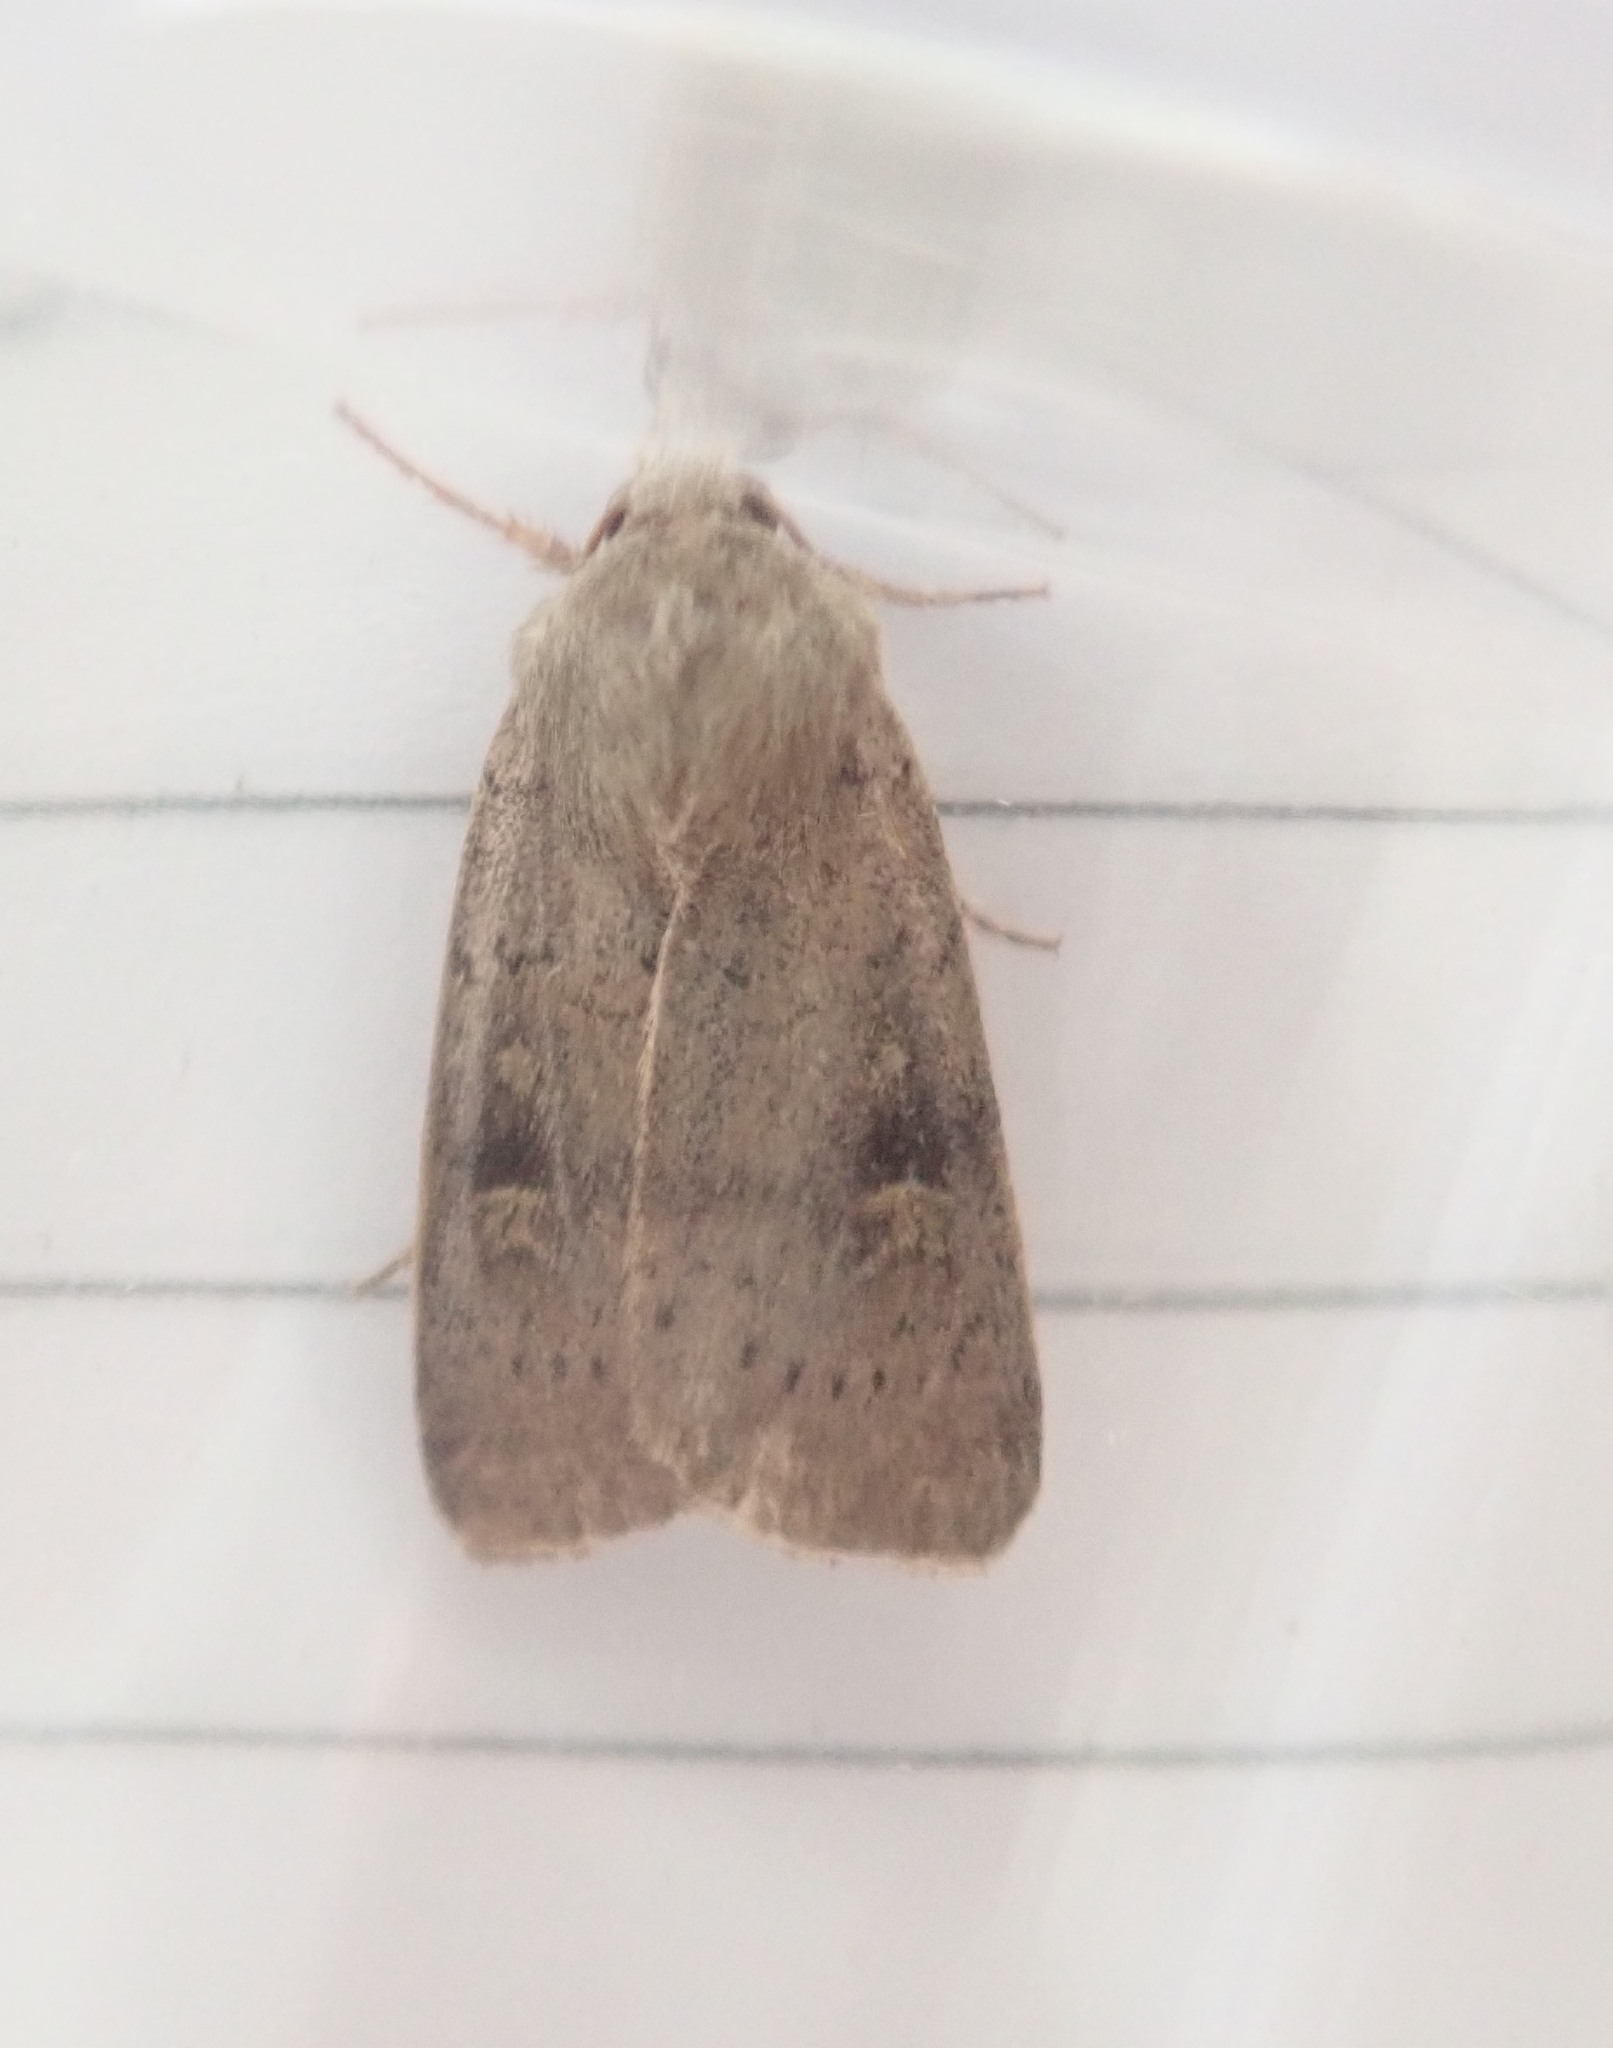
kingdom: Animalia
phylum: Arthropoda
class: Insecta
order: Lepidoptera
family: Noctuidae
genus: Xestia
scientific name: Xestia xanthographa
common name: Square-spot rustic
